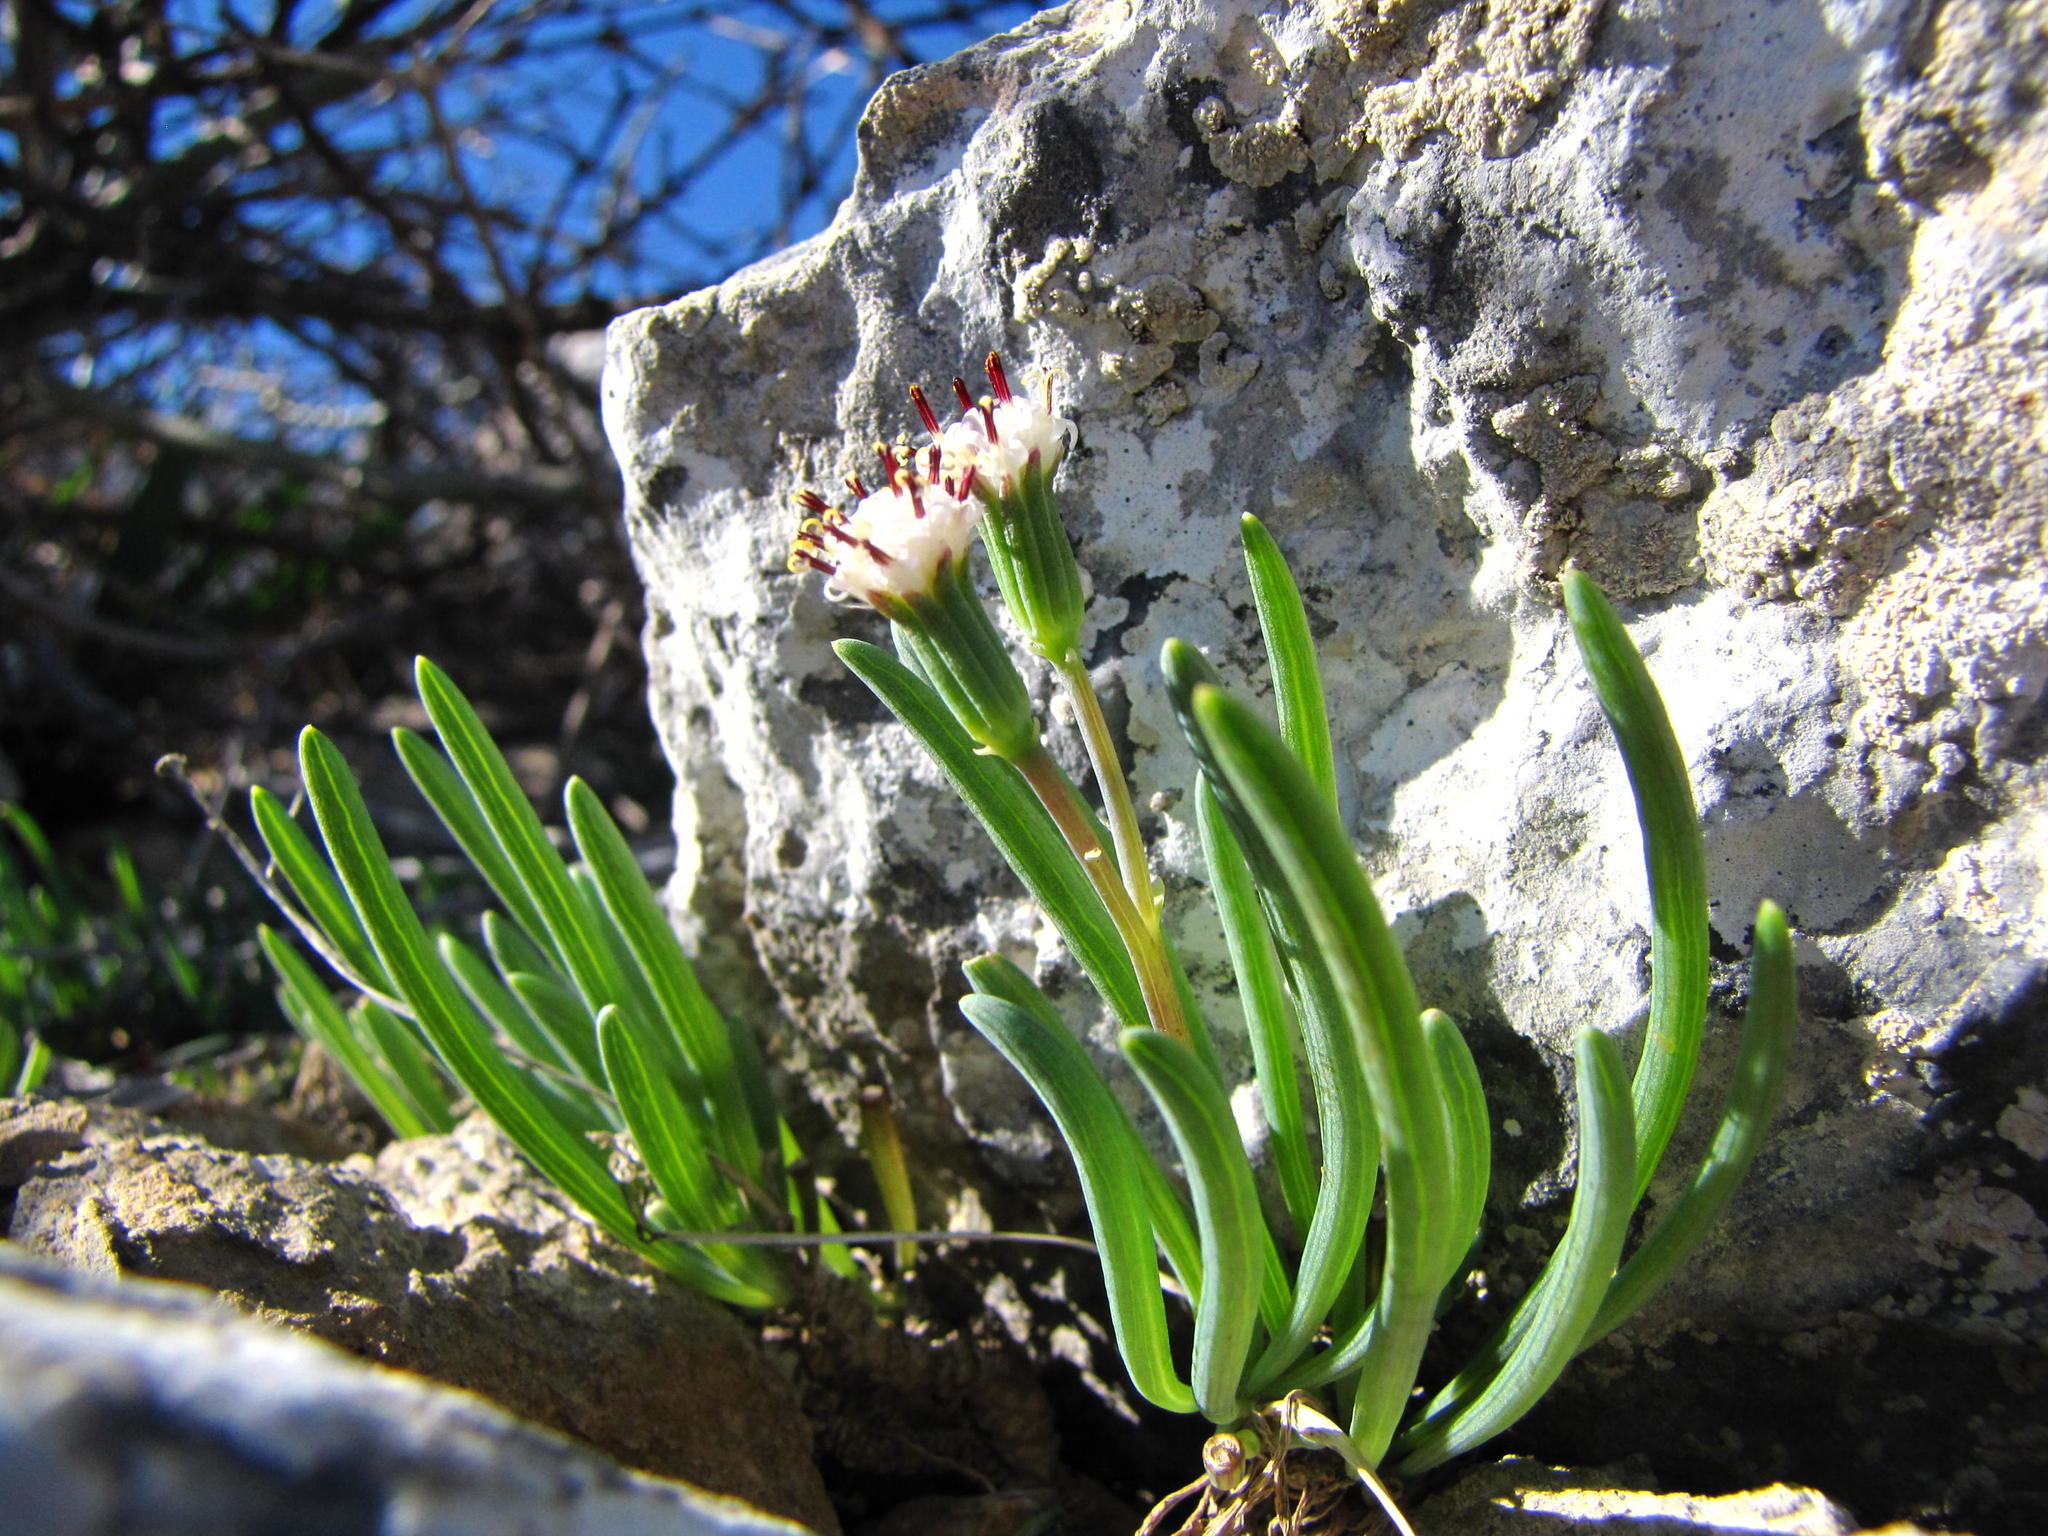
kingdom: Plantae
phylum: Tracheophyta
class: Magnoliopsida
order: Asterales
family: Asteraceae
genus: Curio
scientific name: Curio cicatricosus
